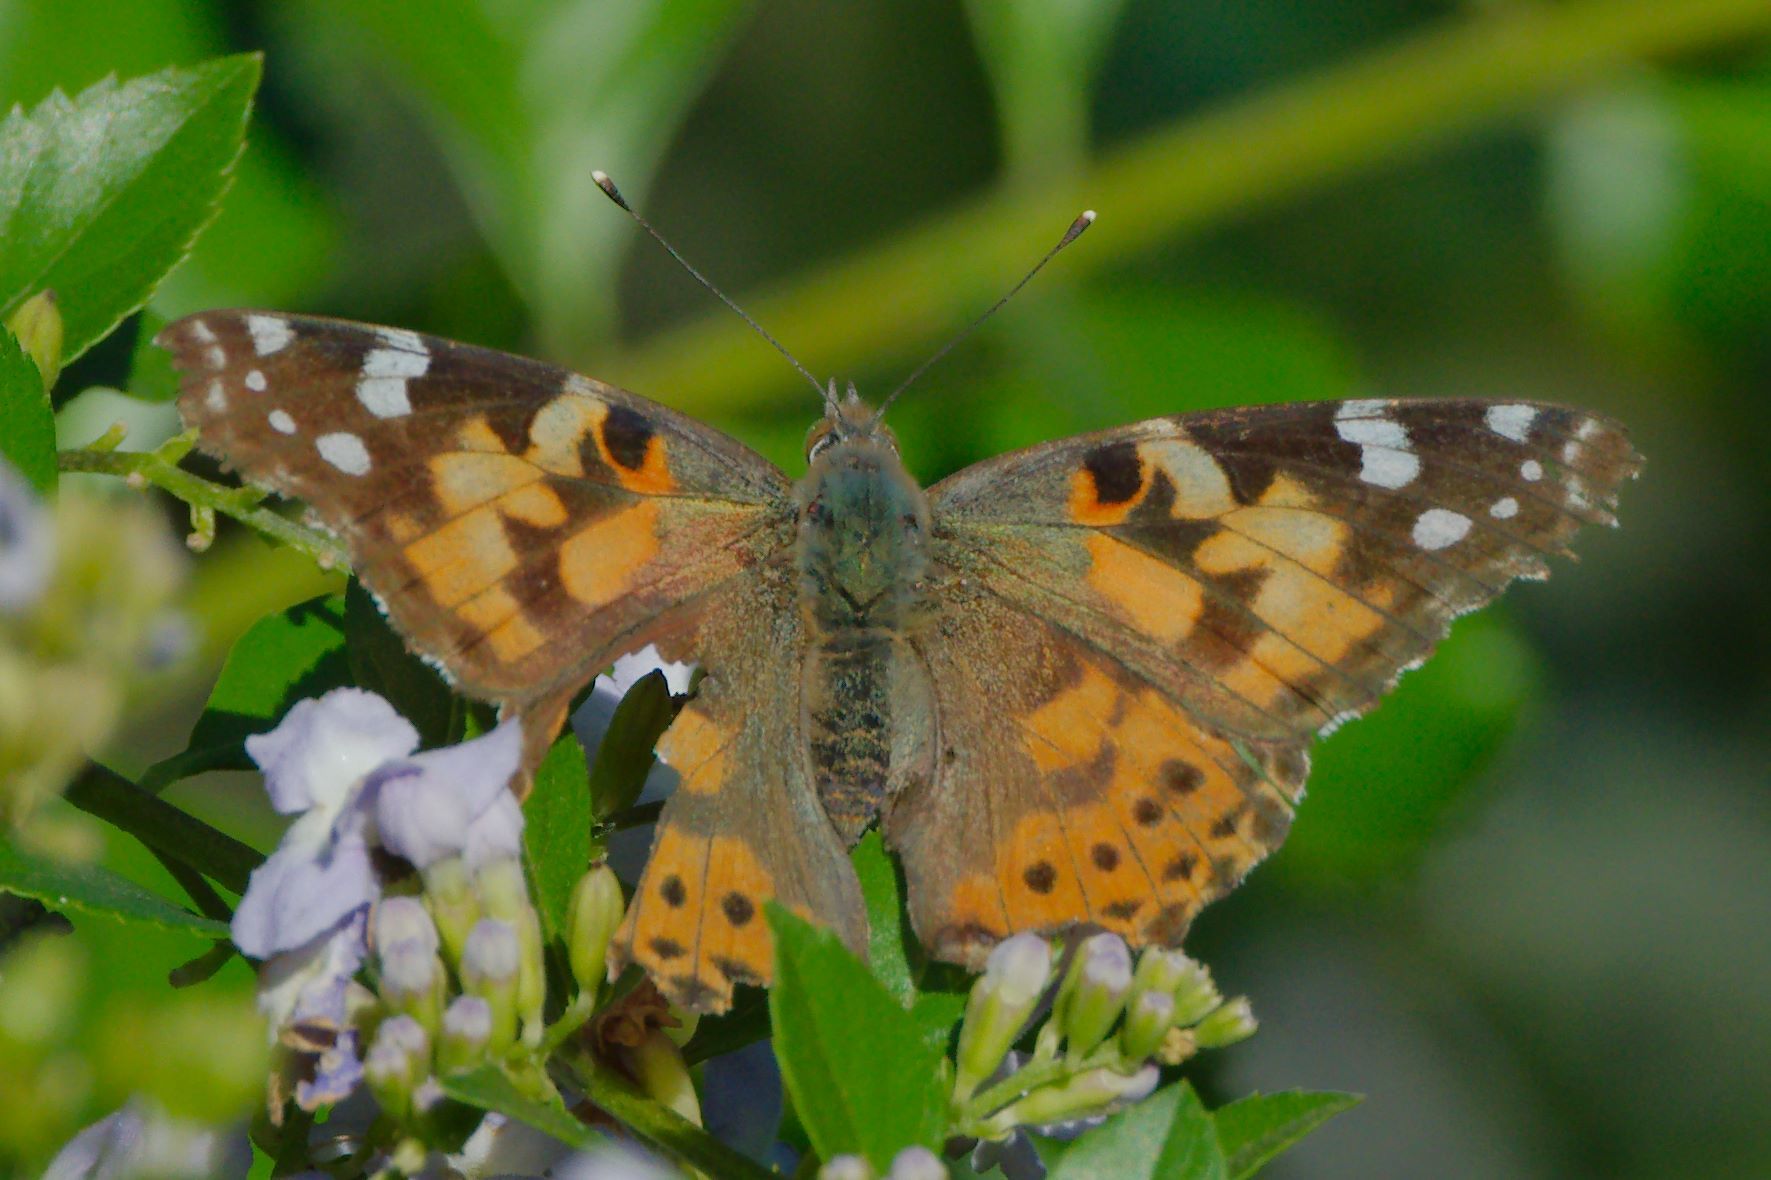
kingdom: Animalia
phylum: Arthropoda
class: Insecta
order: Lepidoptera
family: Nymphalidae
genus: Vanessa
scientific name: Vanessa cardui
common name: Painted lady
